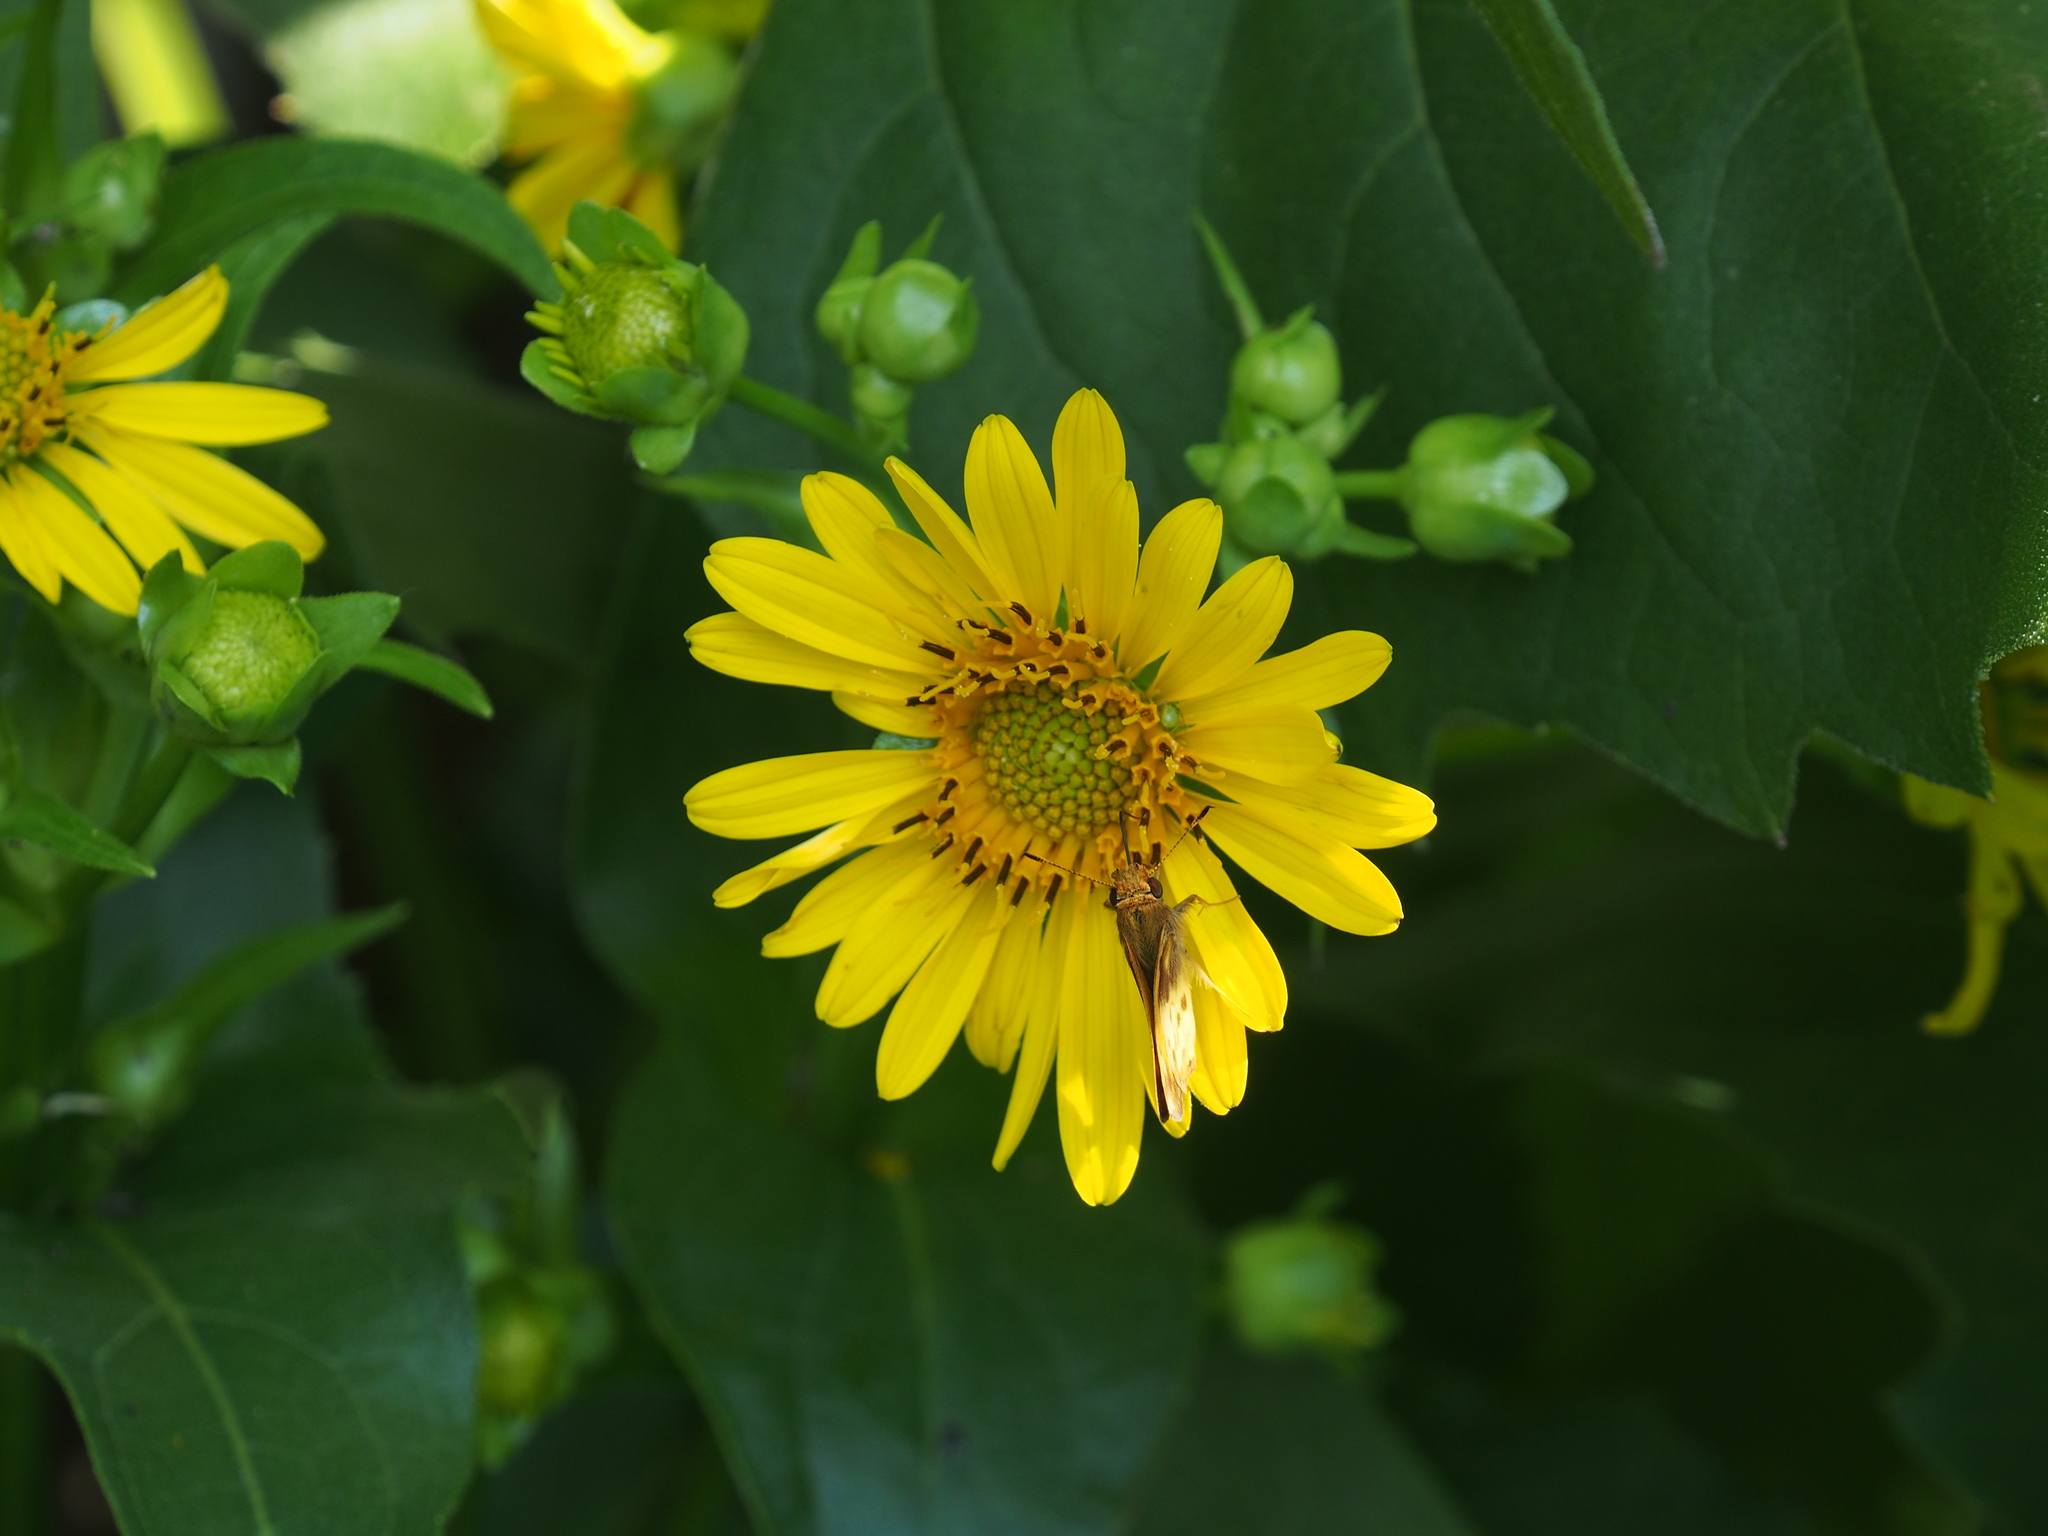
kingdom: Plantae
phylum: Tracheophyta
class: Magnoliopsida
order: Asterales
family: Asteraceae
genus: Silphium
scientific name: Silphium perfoliatum
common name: Cup-plant
